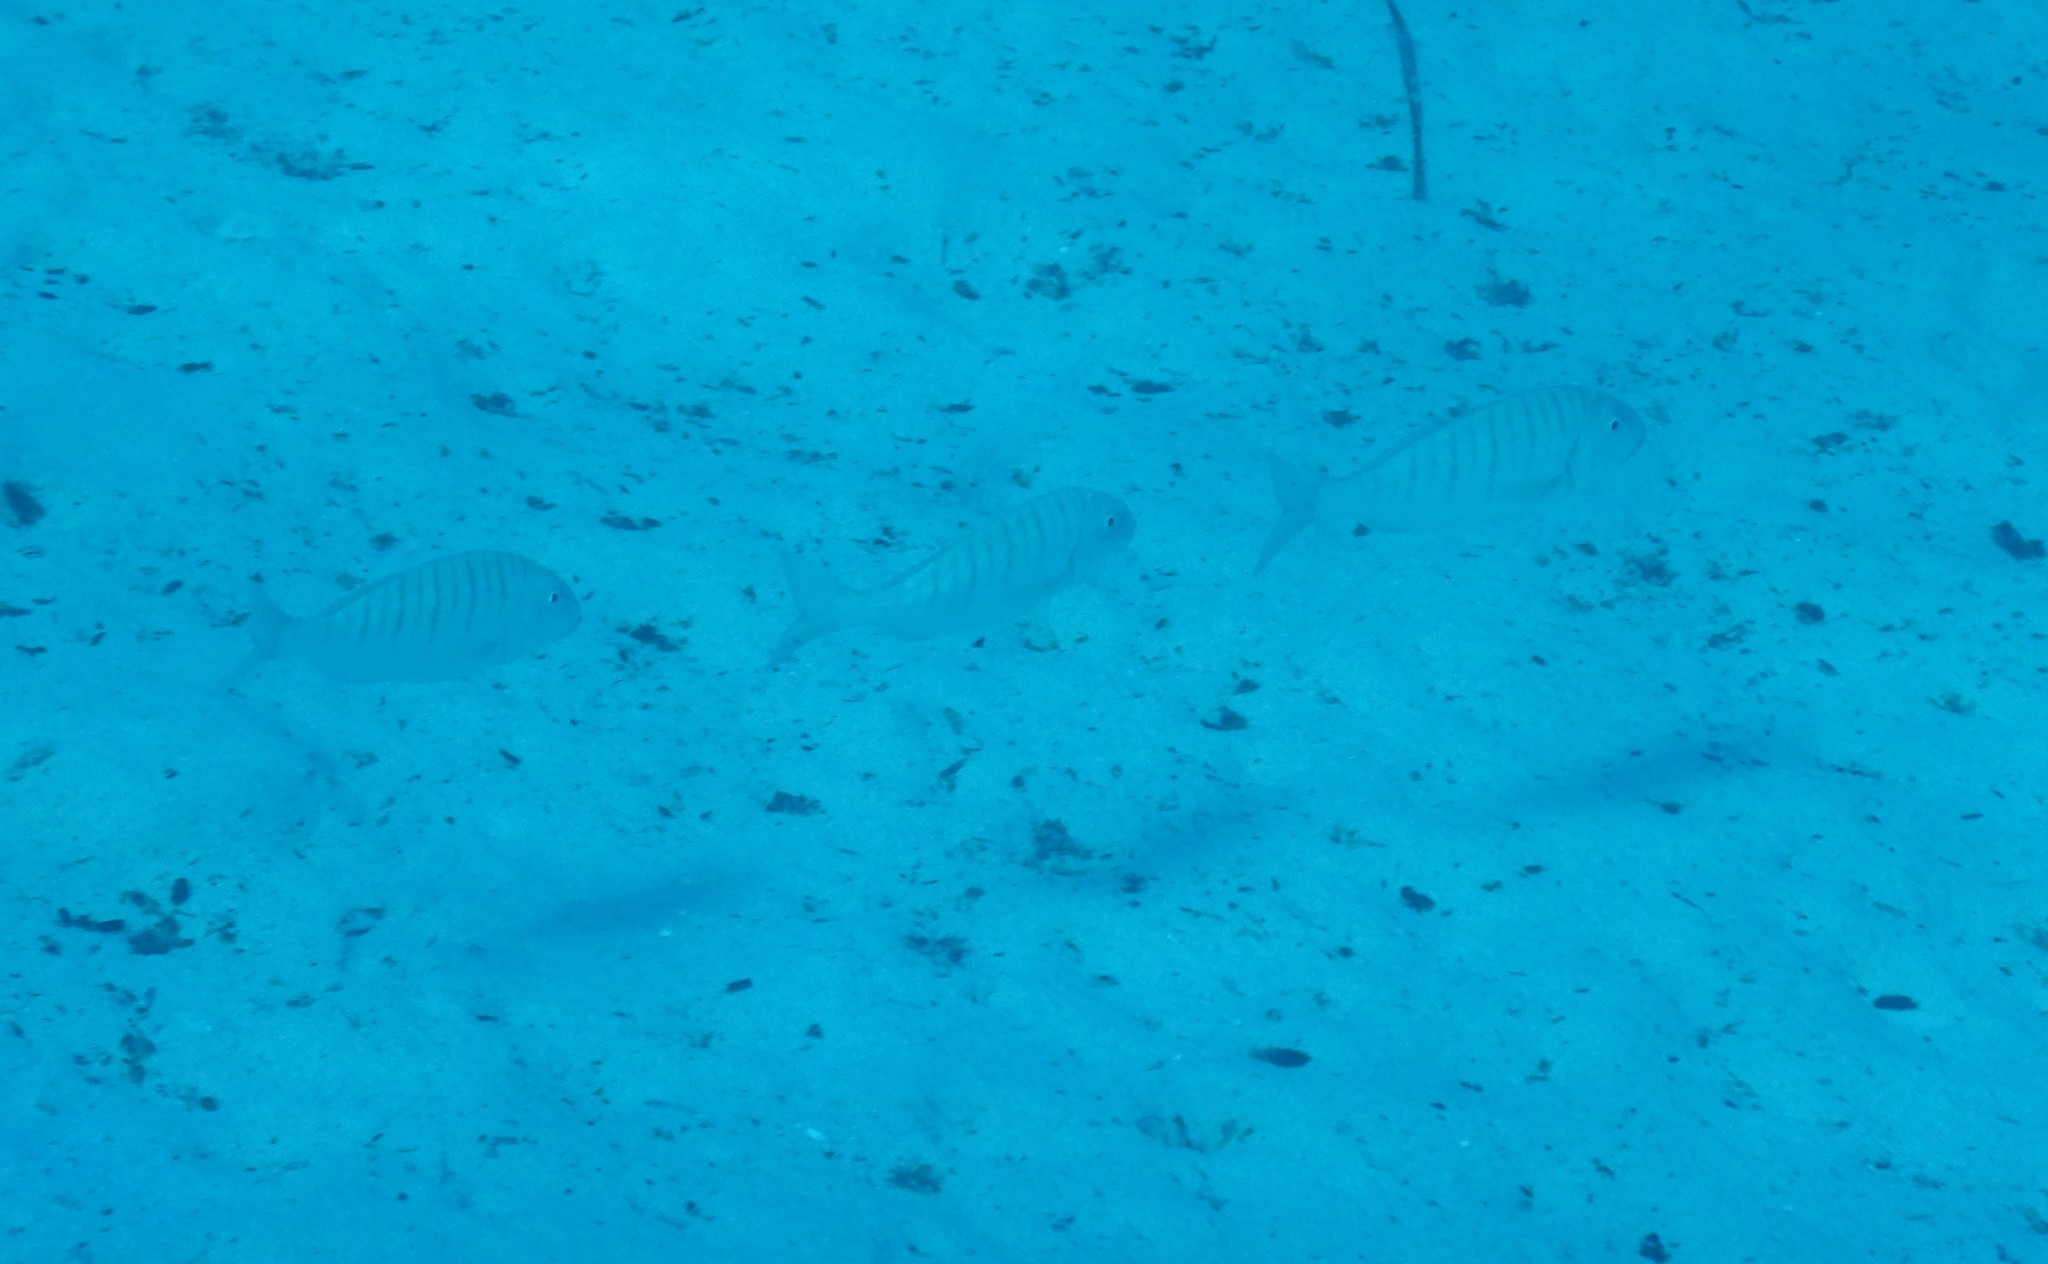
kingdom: Animalia
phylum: Chordata
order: Perciformes
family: Sparidae
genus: Lithognathus
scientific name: Lithognathus mormyrus
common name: Sand steenbras
